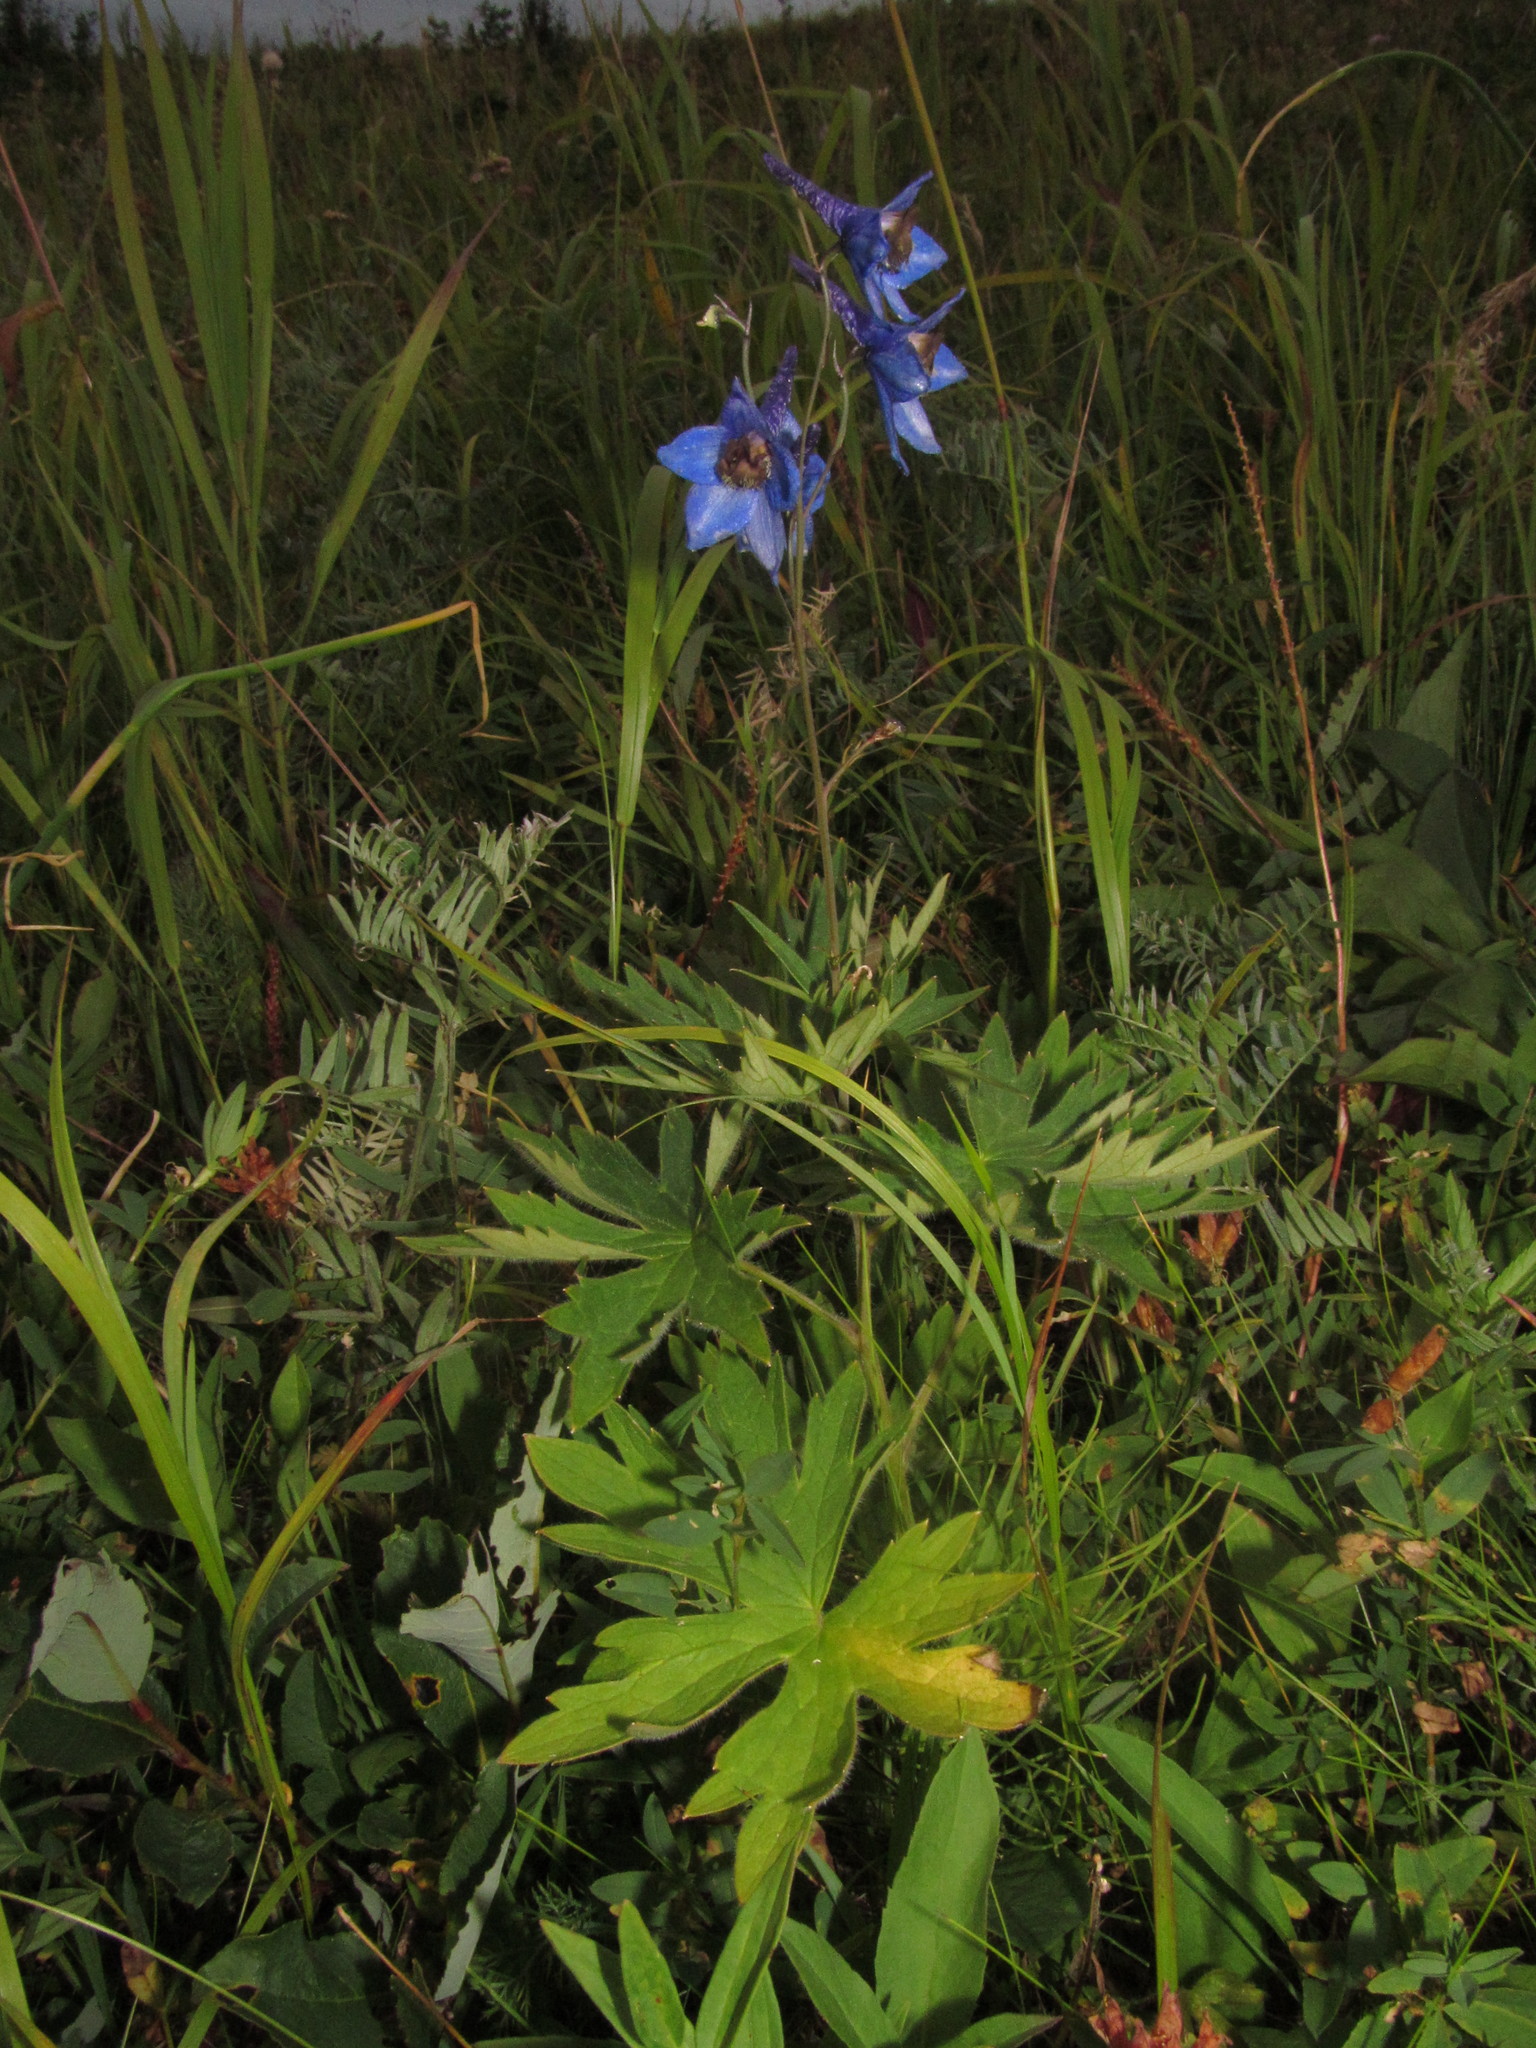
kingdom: Plantae
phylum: Tracheophyta
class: Magnoliopsida
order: Ranunculales
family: Ranunculaceae
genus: Delphinium
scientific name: Delphinium elatum
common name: Candle larkspur
